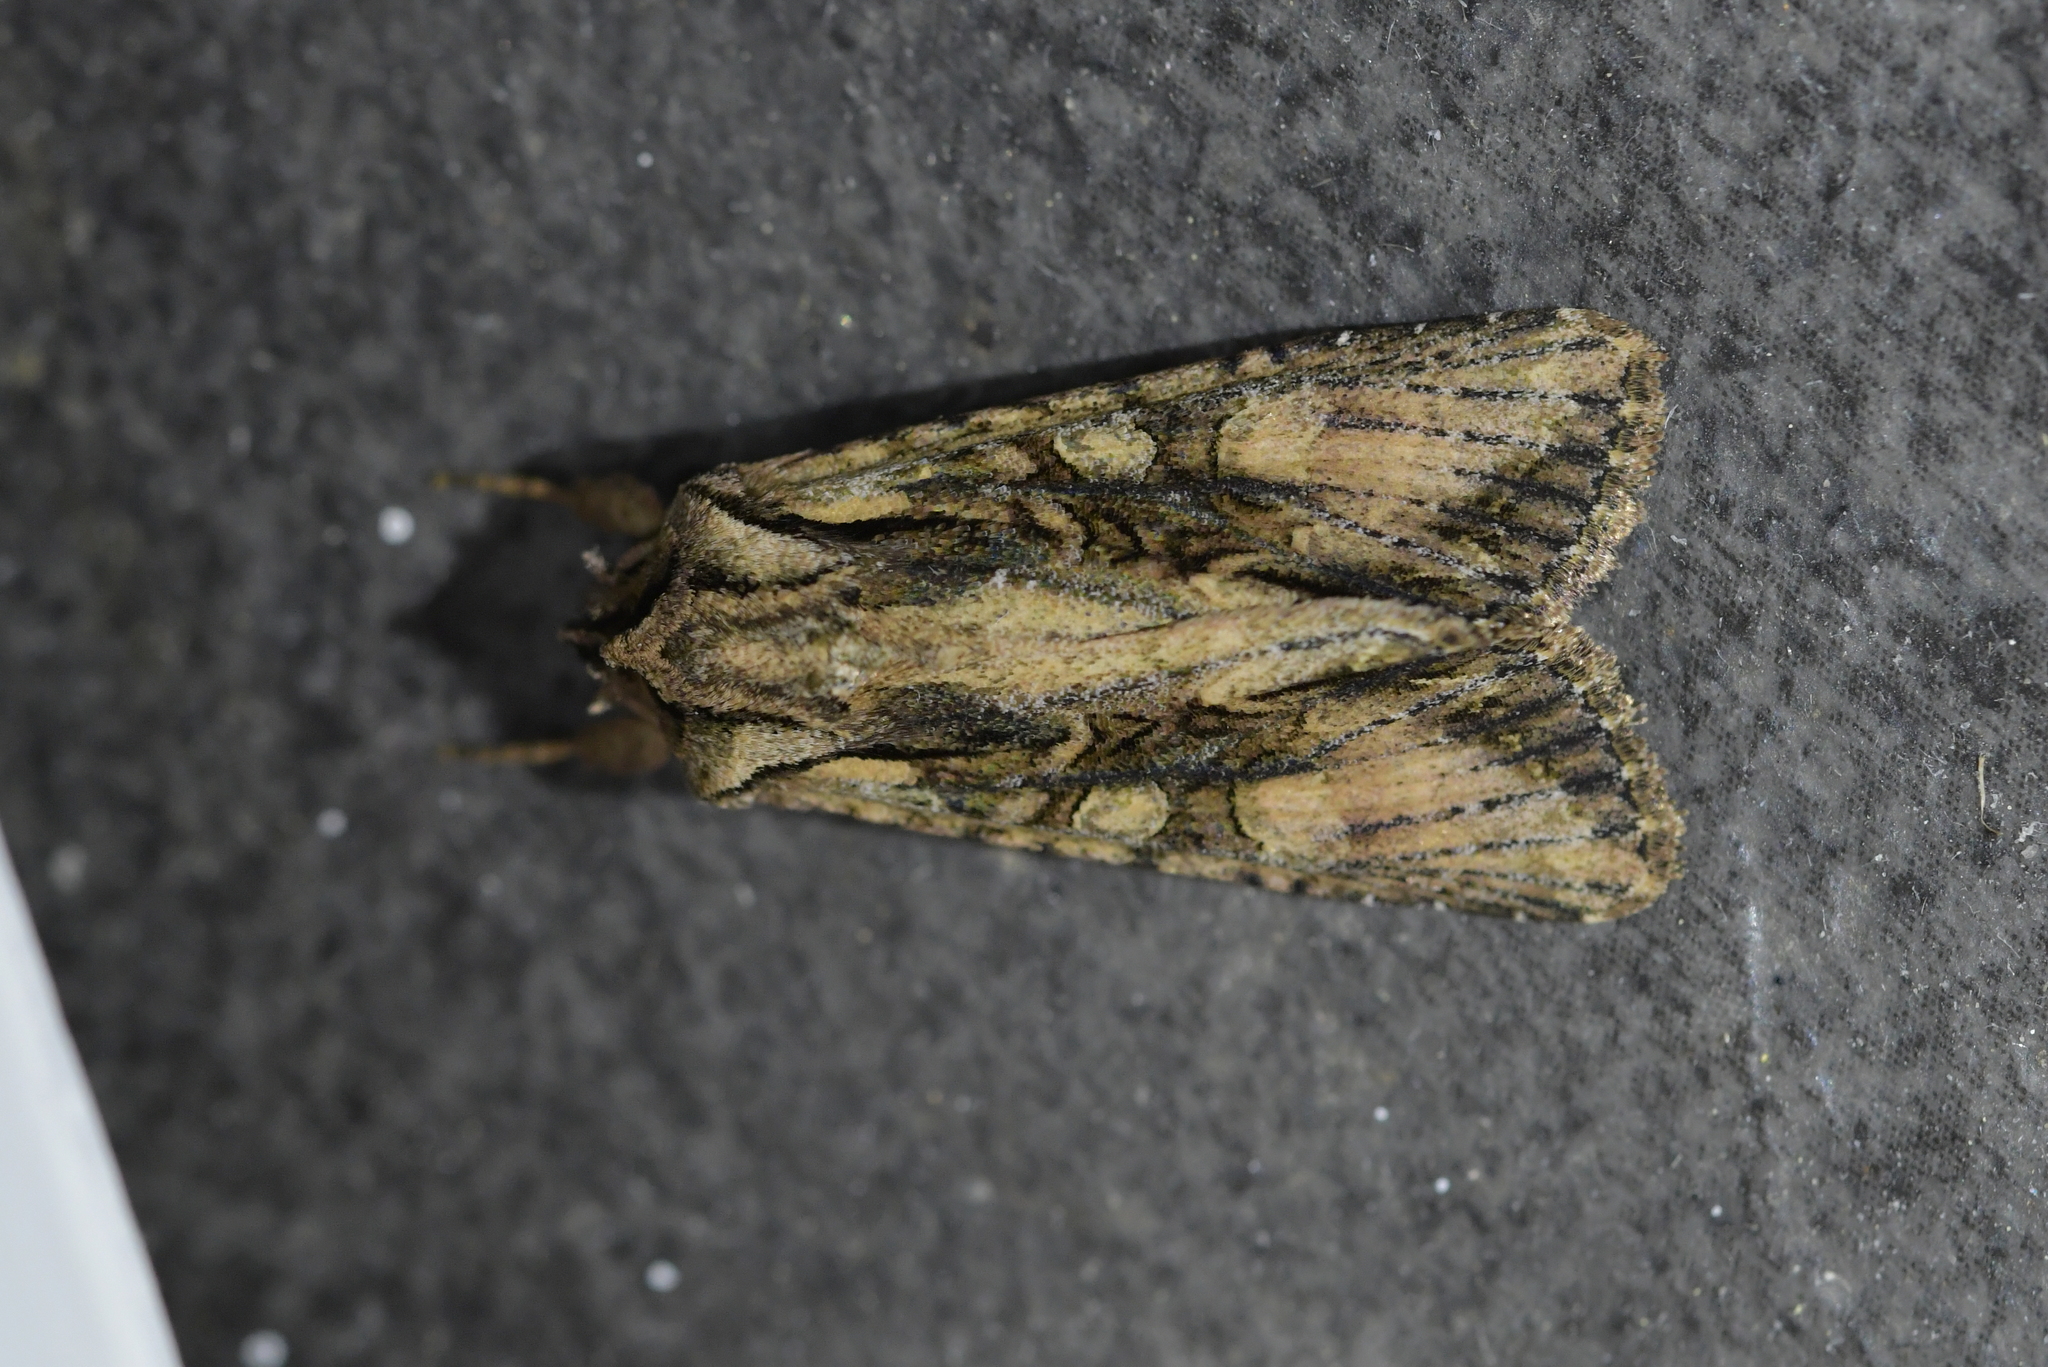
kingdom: Animalia
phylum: Arthropoda
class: Insecta
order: Lepidoptera
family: Noctuidae
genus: Ichneutica
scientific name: Ichneutica mutans
